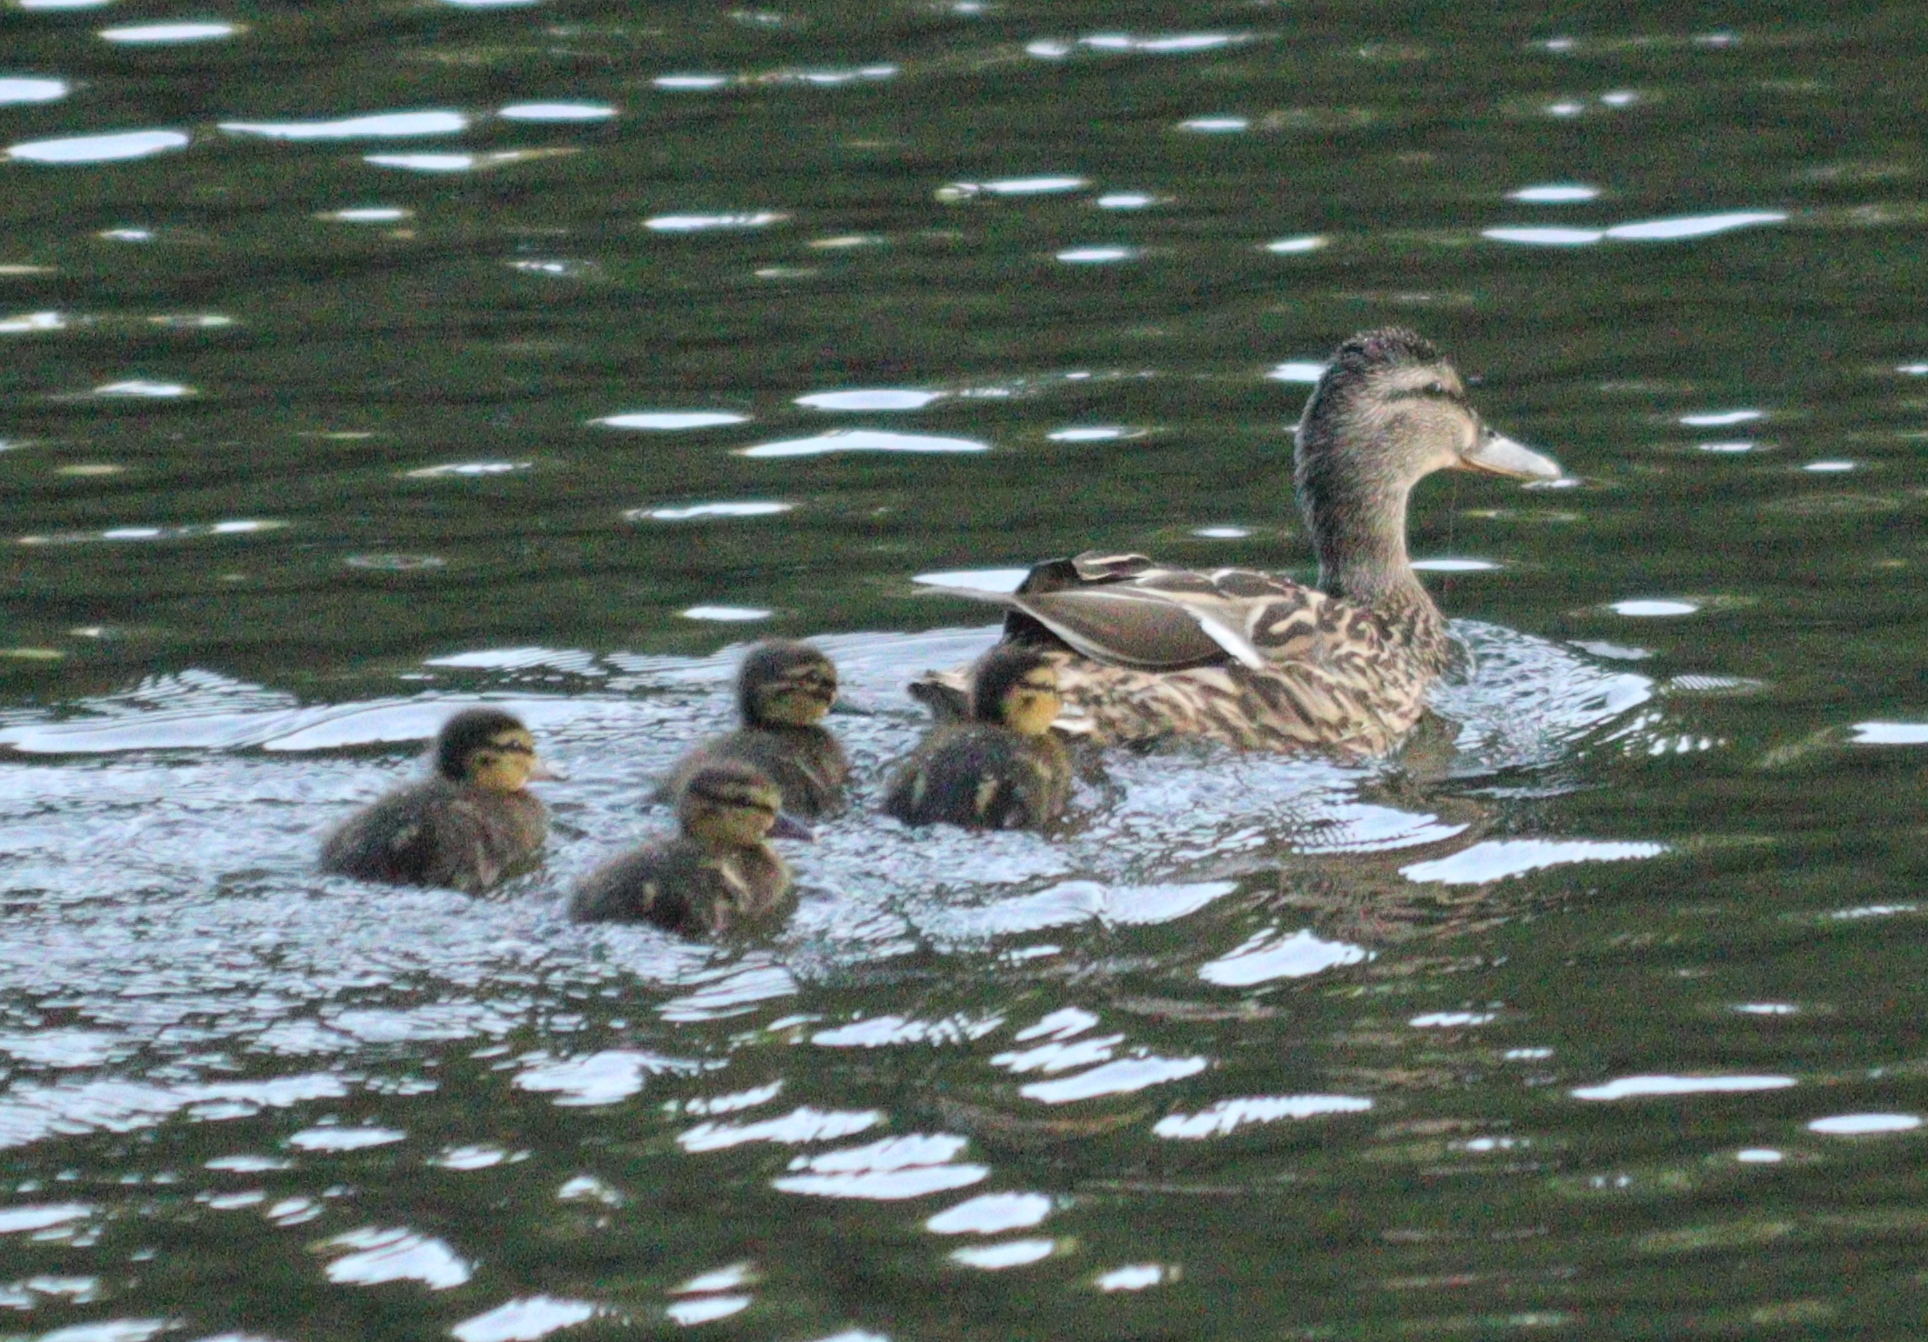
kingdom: Animalia
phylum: Chordata
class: Aves
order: Anseriformes
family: Anatidae
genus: Anas
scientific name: Anas platyrhynchos
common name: Mallard
